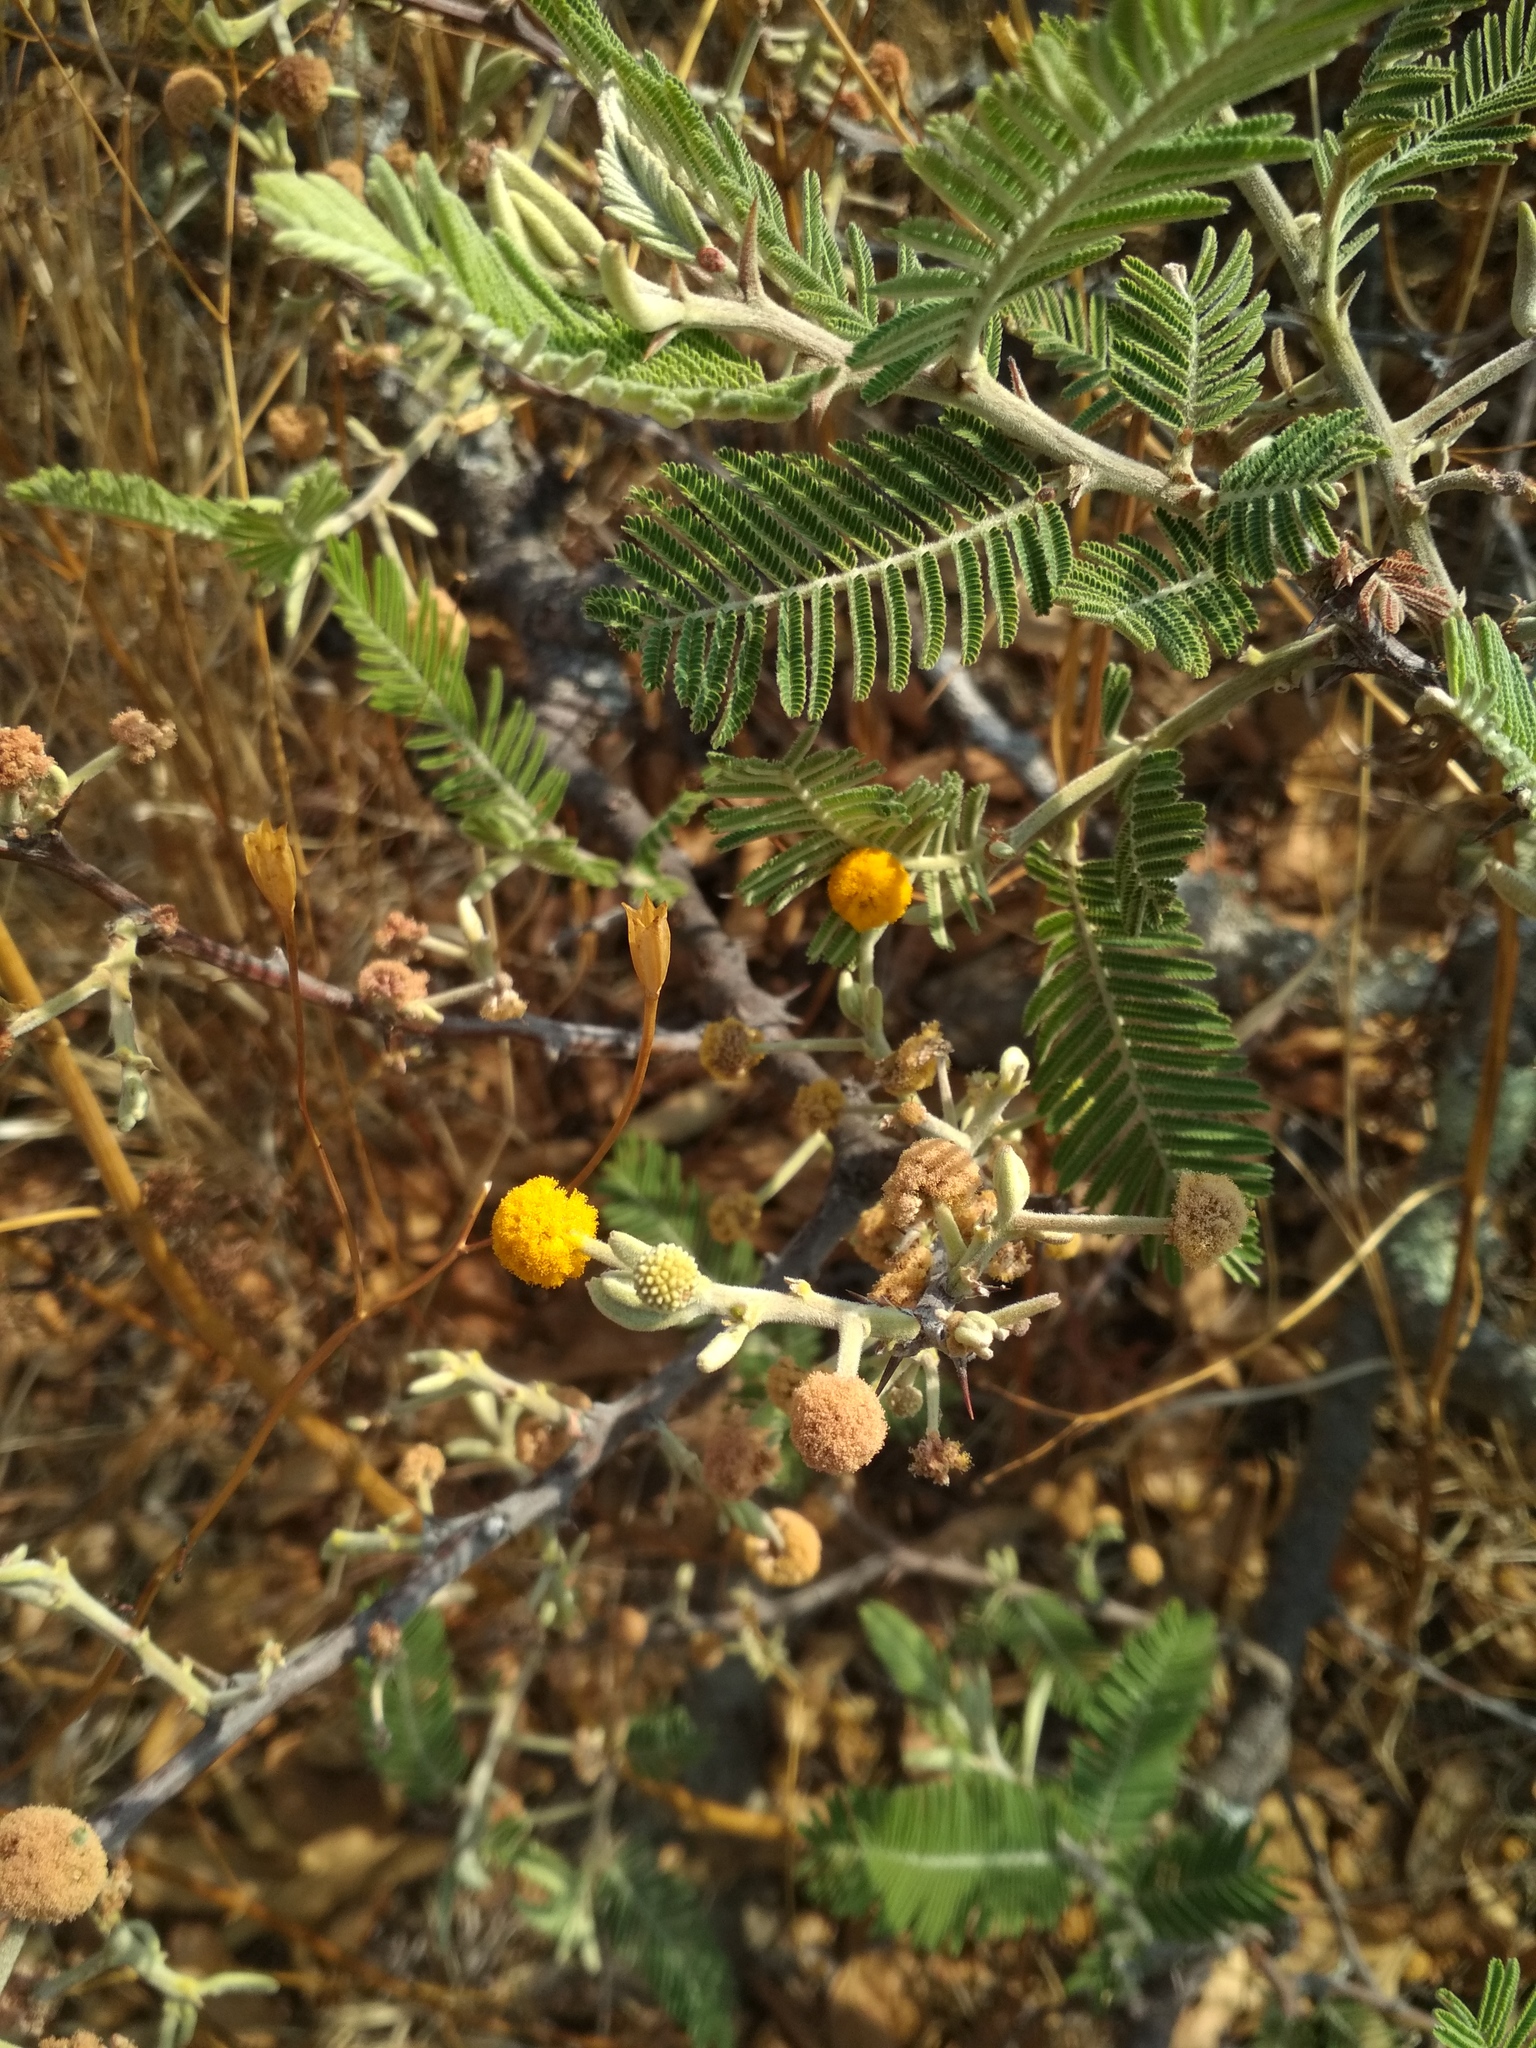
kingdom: Plantae
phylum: Tracheophyta
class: Magnoliopsida
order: Fabales
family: Fabaceae
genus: Vachellia
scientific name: Vachellia pennatula
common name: Fern-leaf acacia
